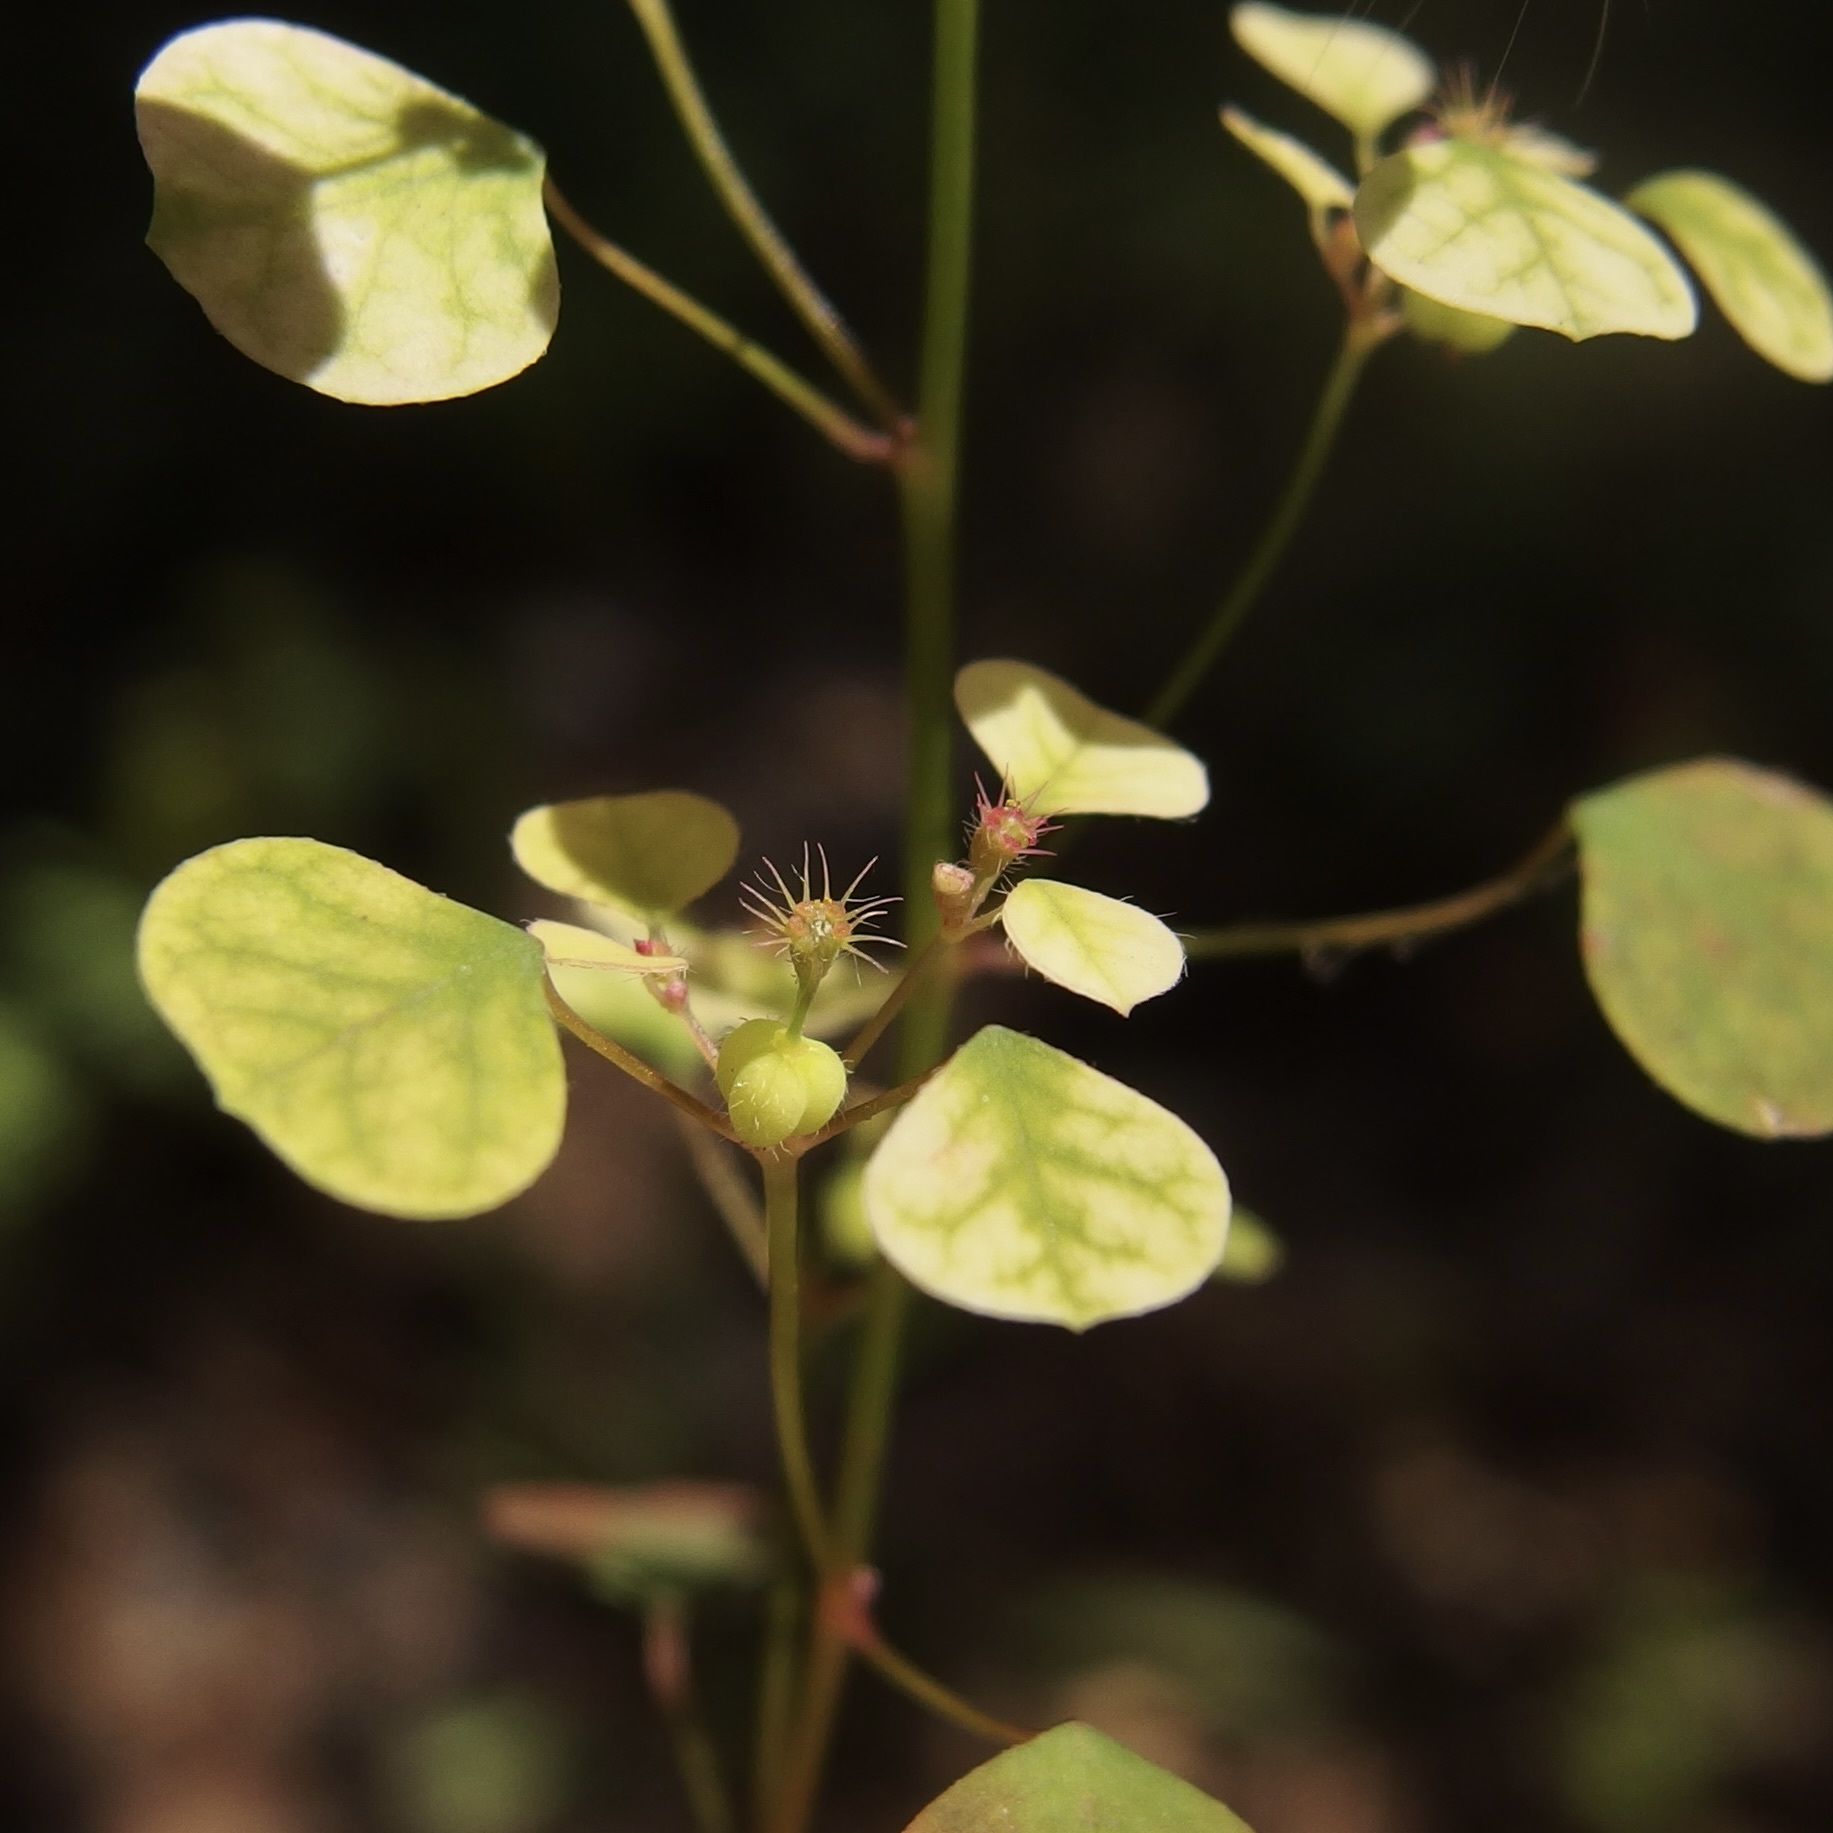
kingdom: Plantae
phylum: Tracheophyta
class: Magnoliopsida
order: Malpighiales
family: Euphorbiaceae
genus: Euphorbia
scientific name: Euphorbia fimbrilligera
